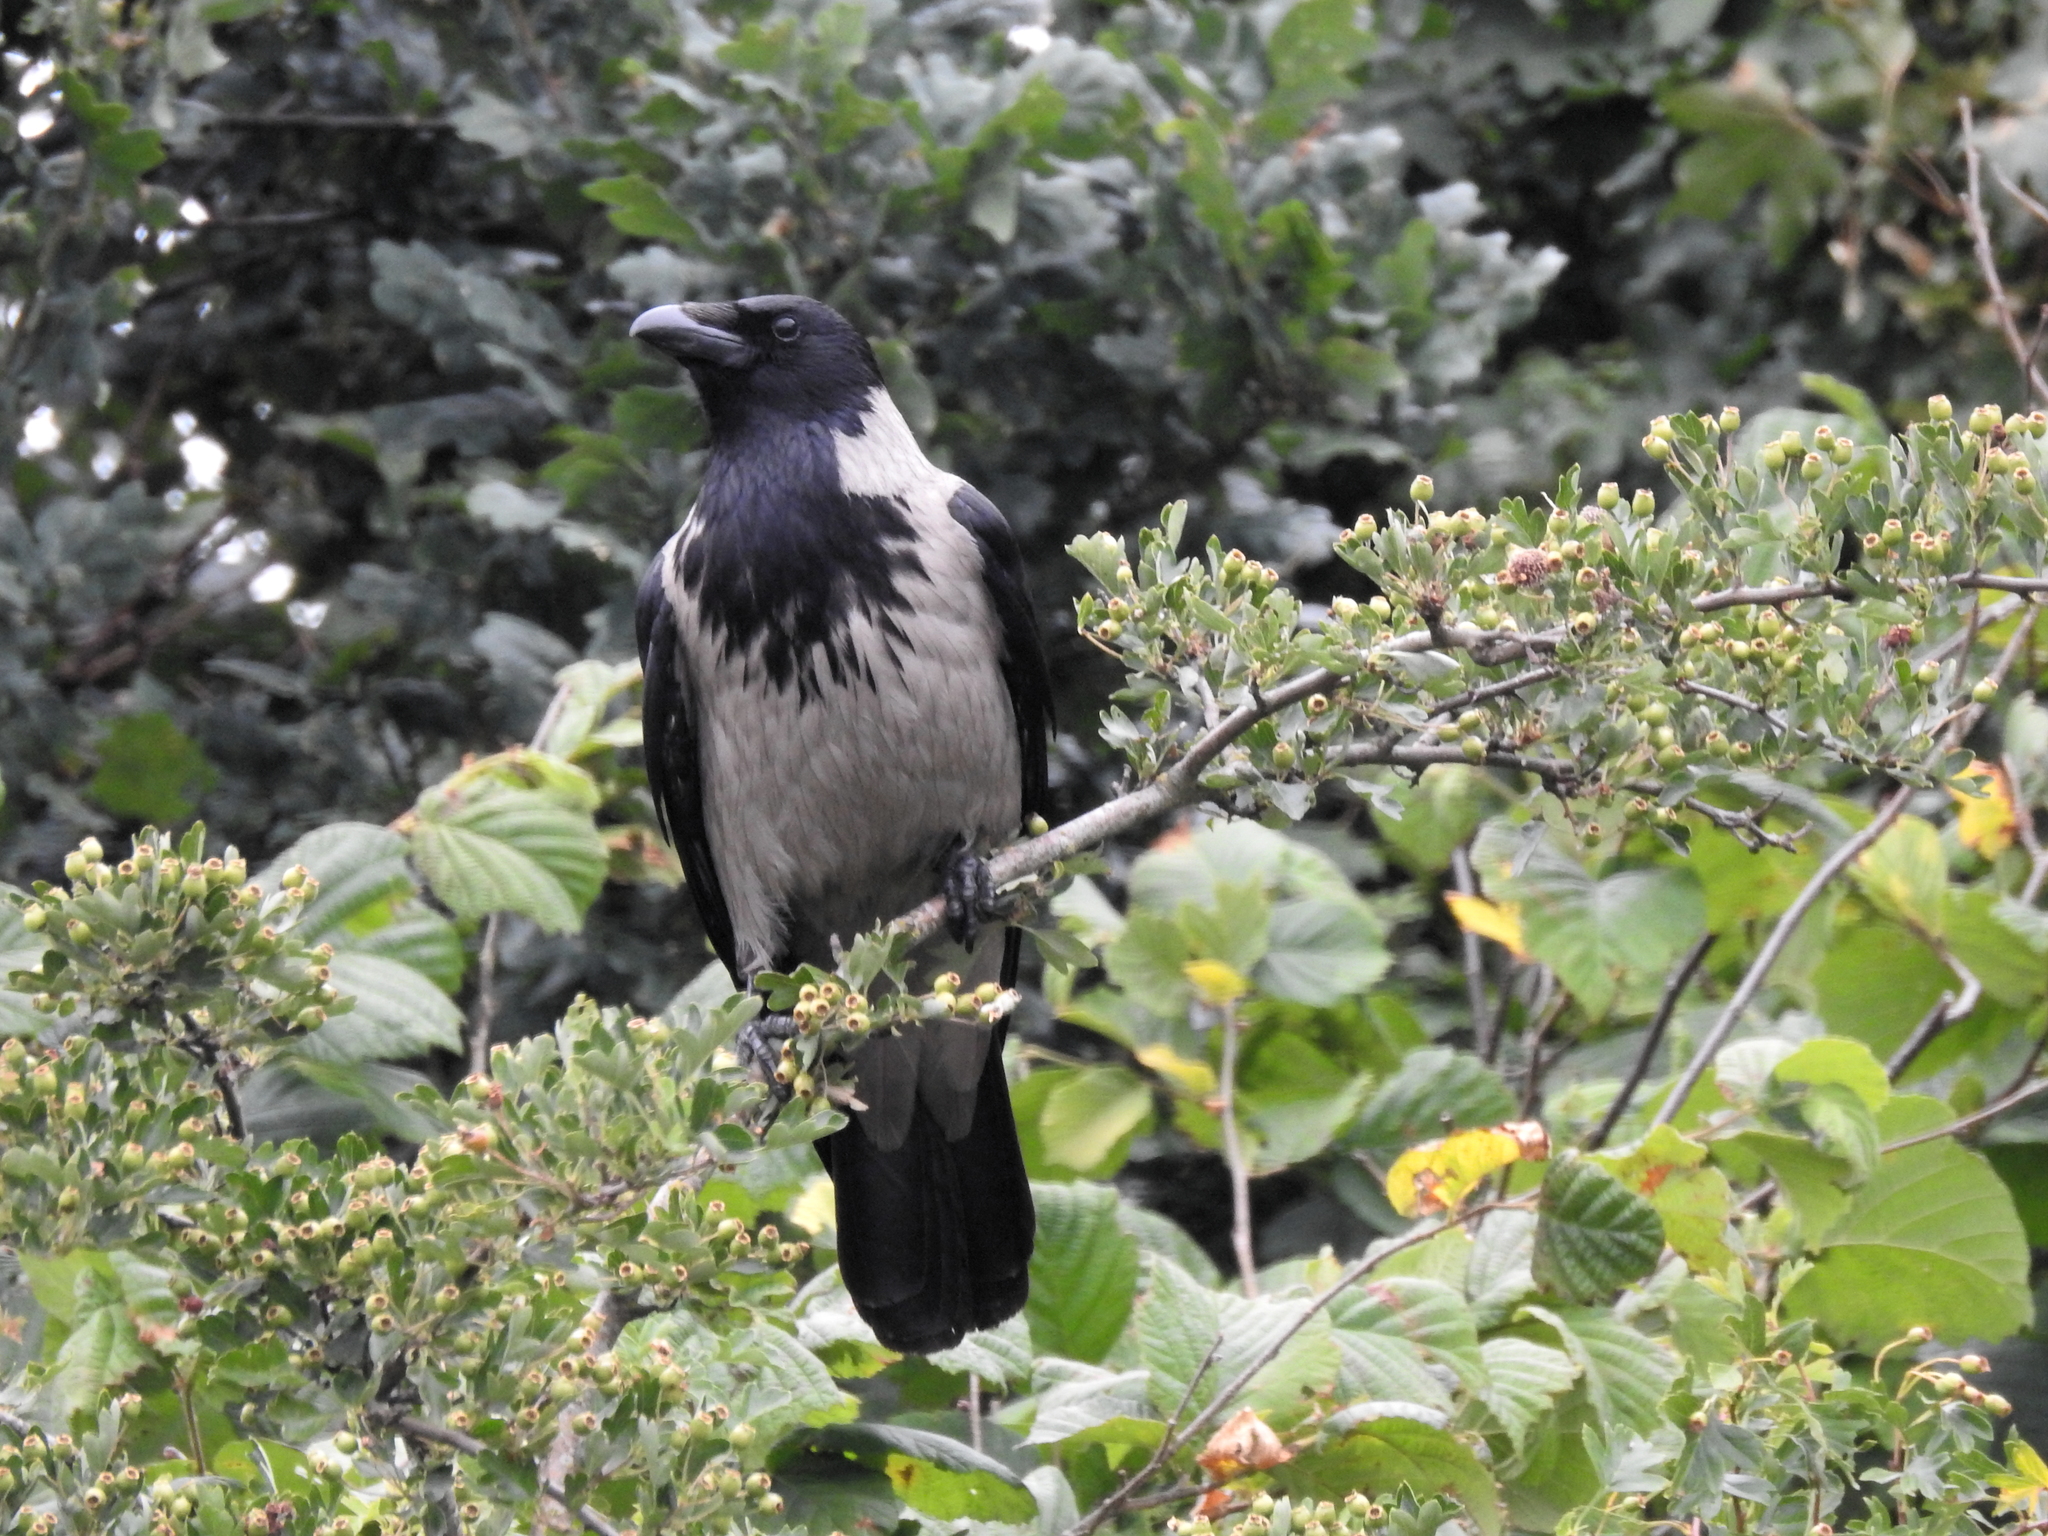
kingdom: Animalia
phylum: Chordata
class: Aves
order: Passeriformes
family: Corvidae
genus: Corvus
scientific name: Corvus cornix
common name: Hooded crow
